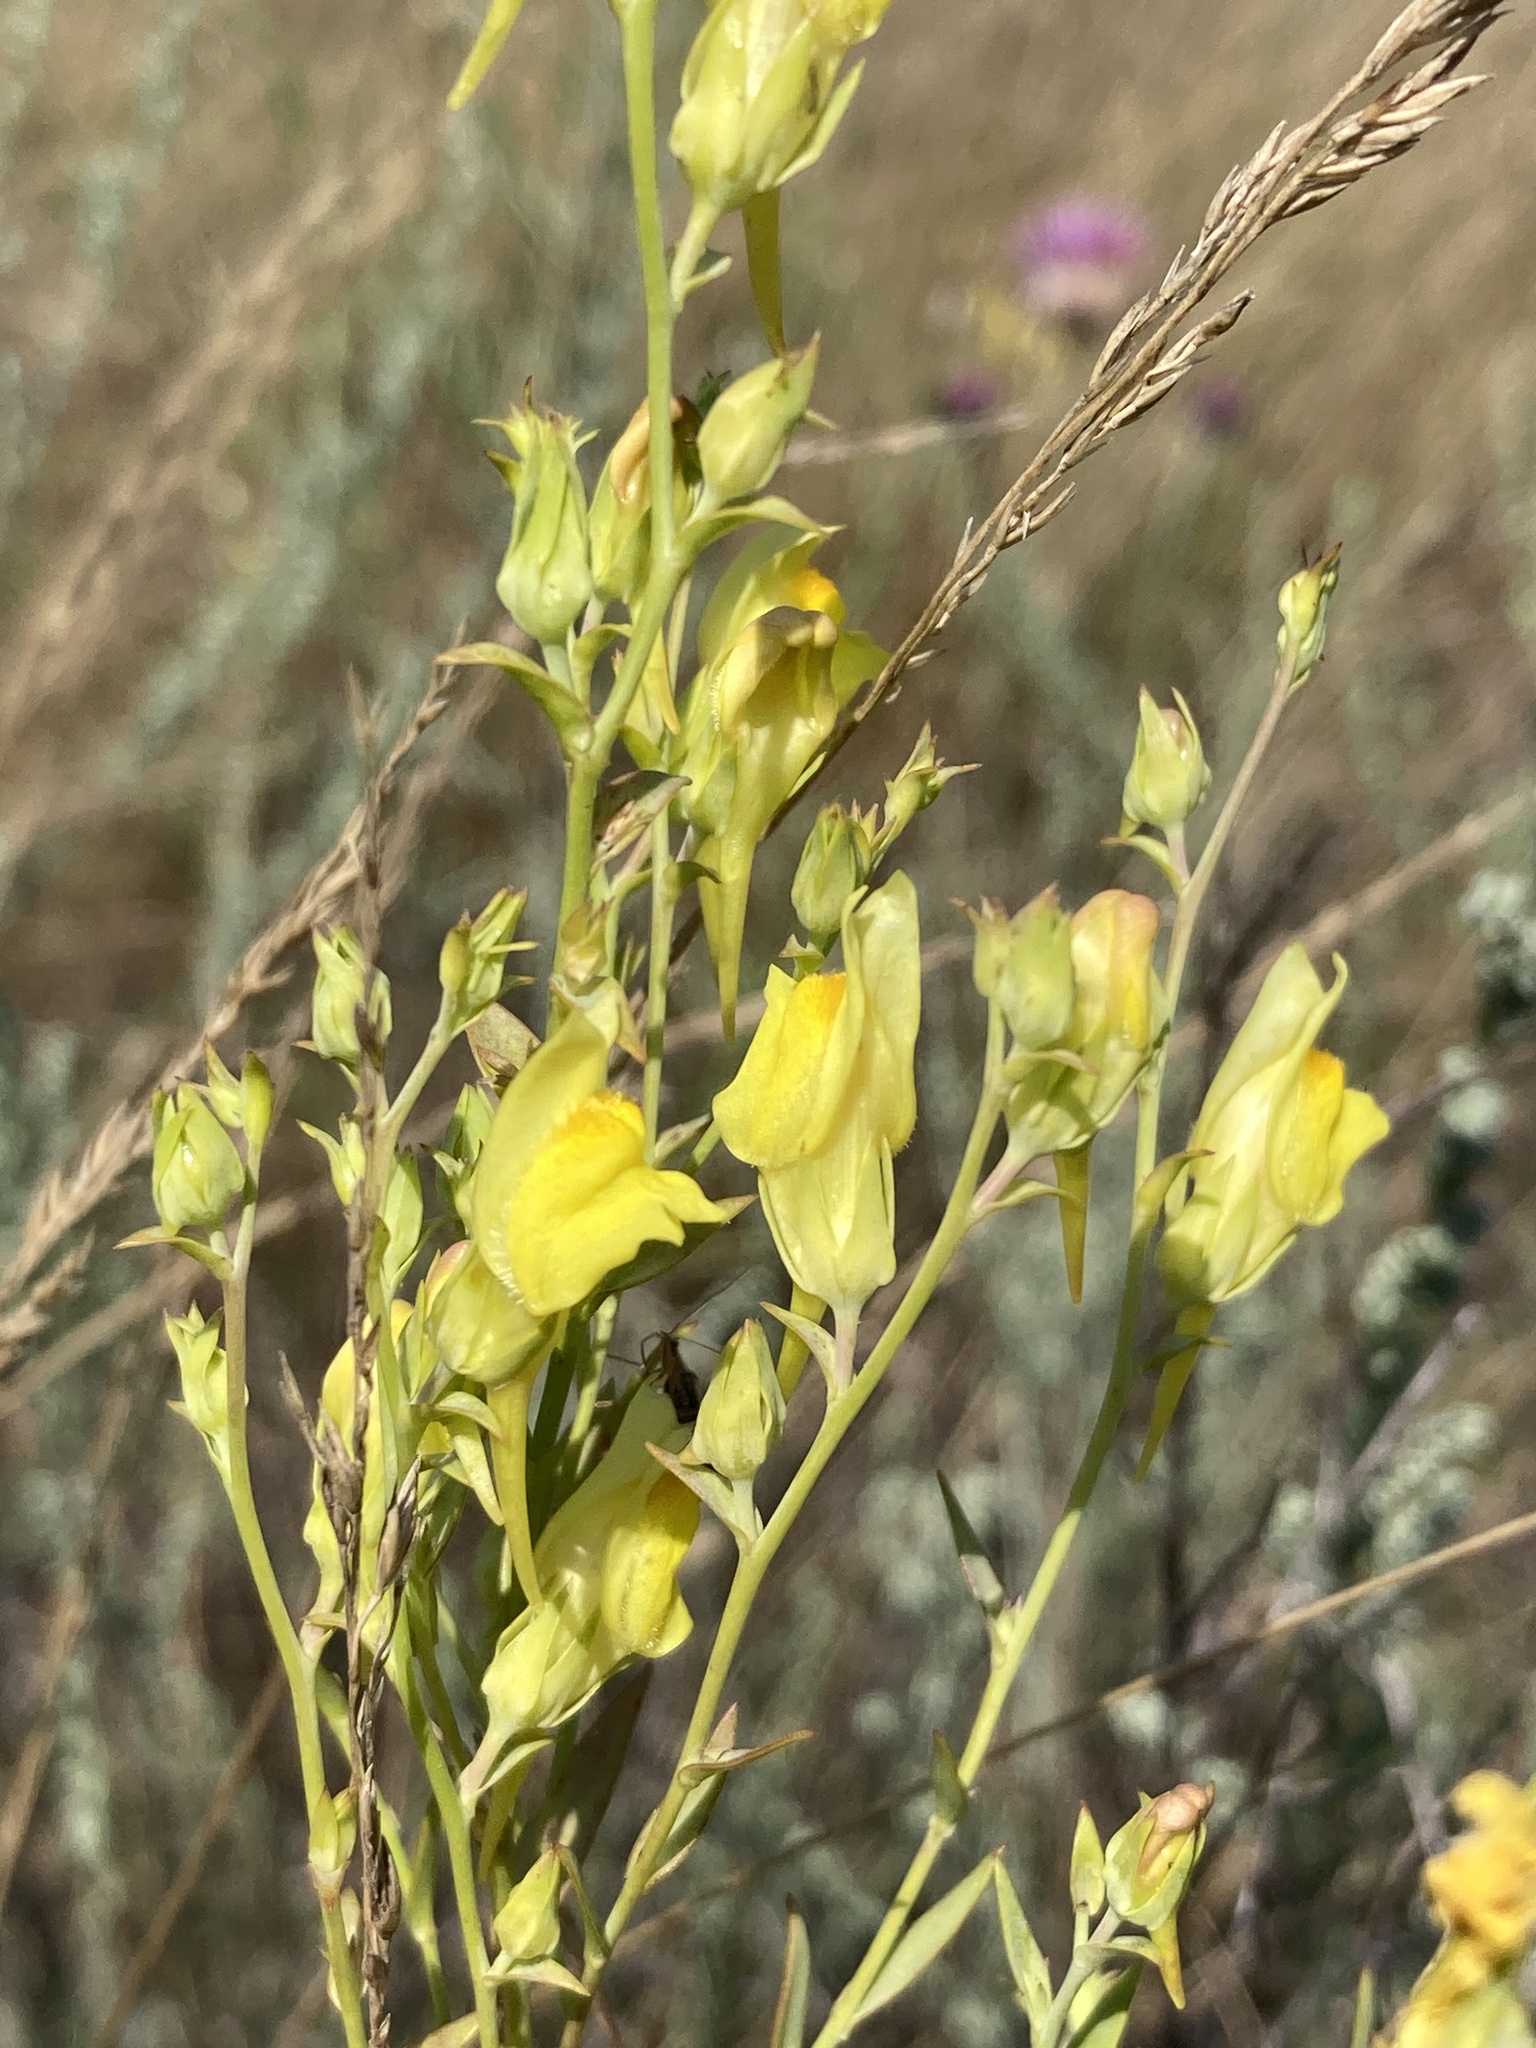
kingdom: Plantae
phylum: Tracheophyta
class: Magnoliopsida
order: Lamiales
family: Plantaginaceae
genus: Linaria
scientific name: Linaria genistifolia
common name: Broomleaf toadflax
